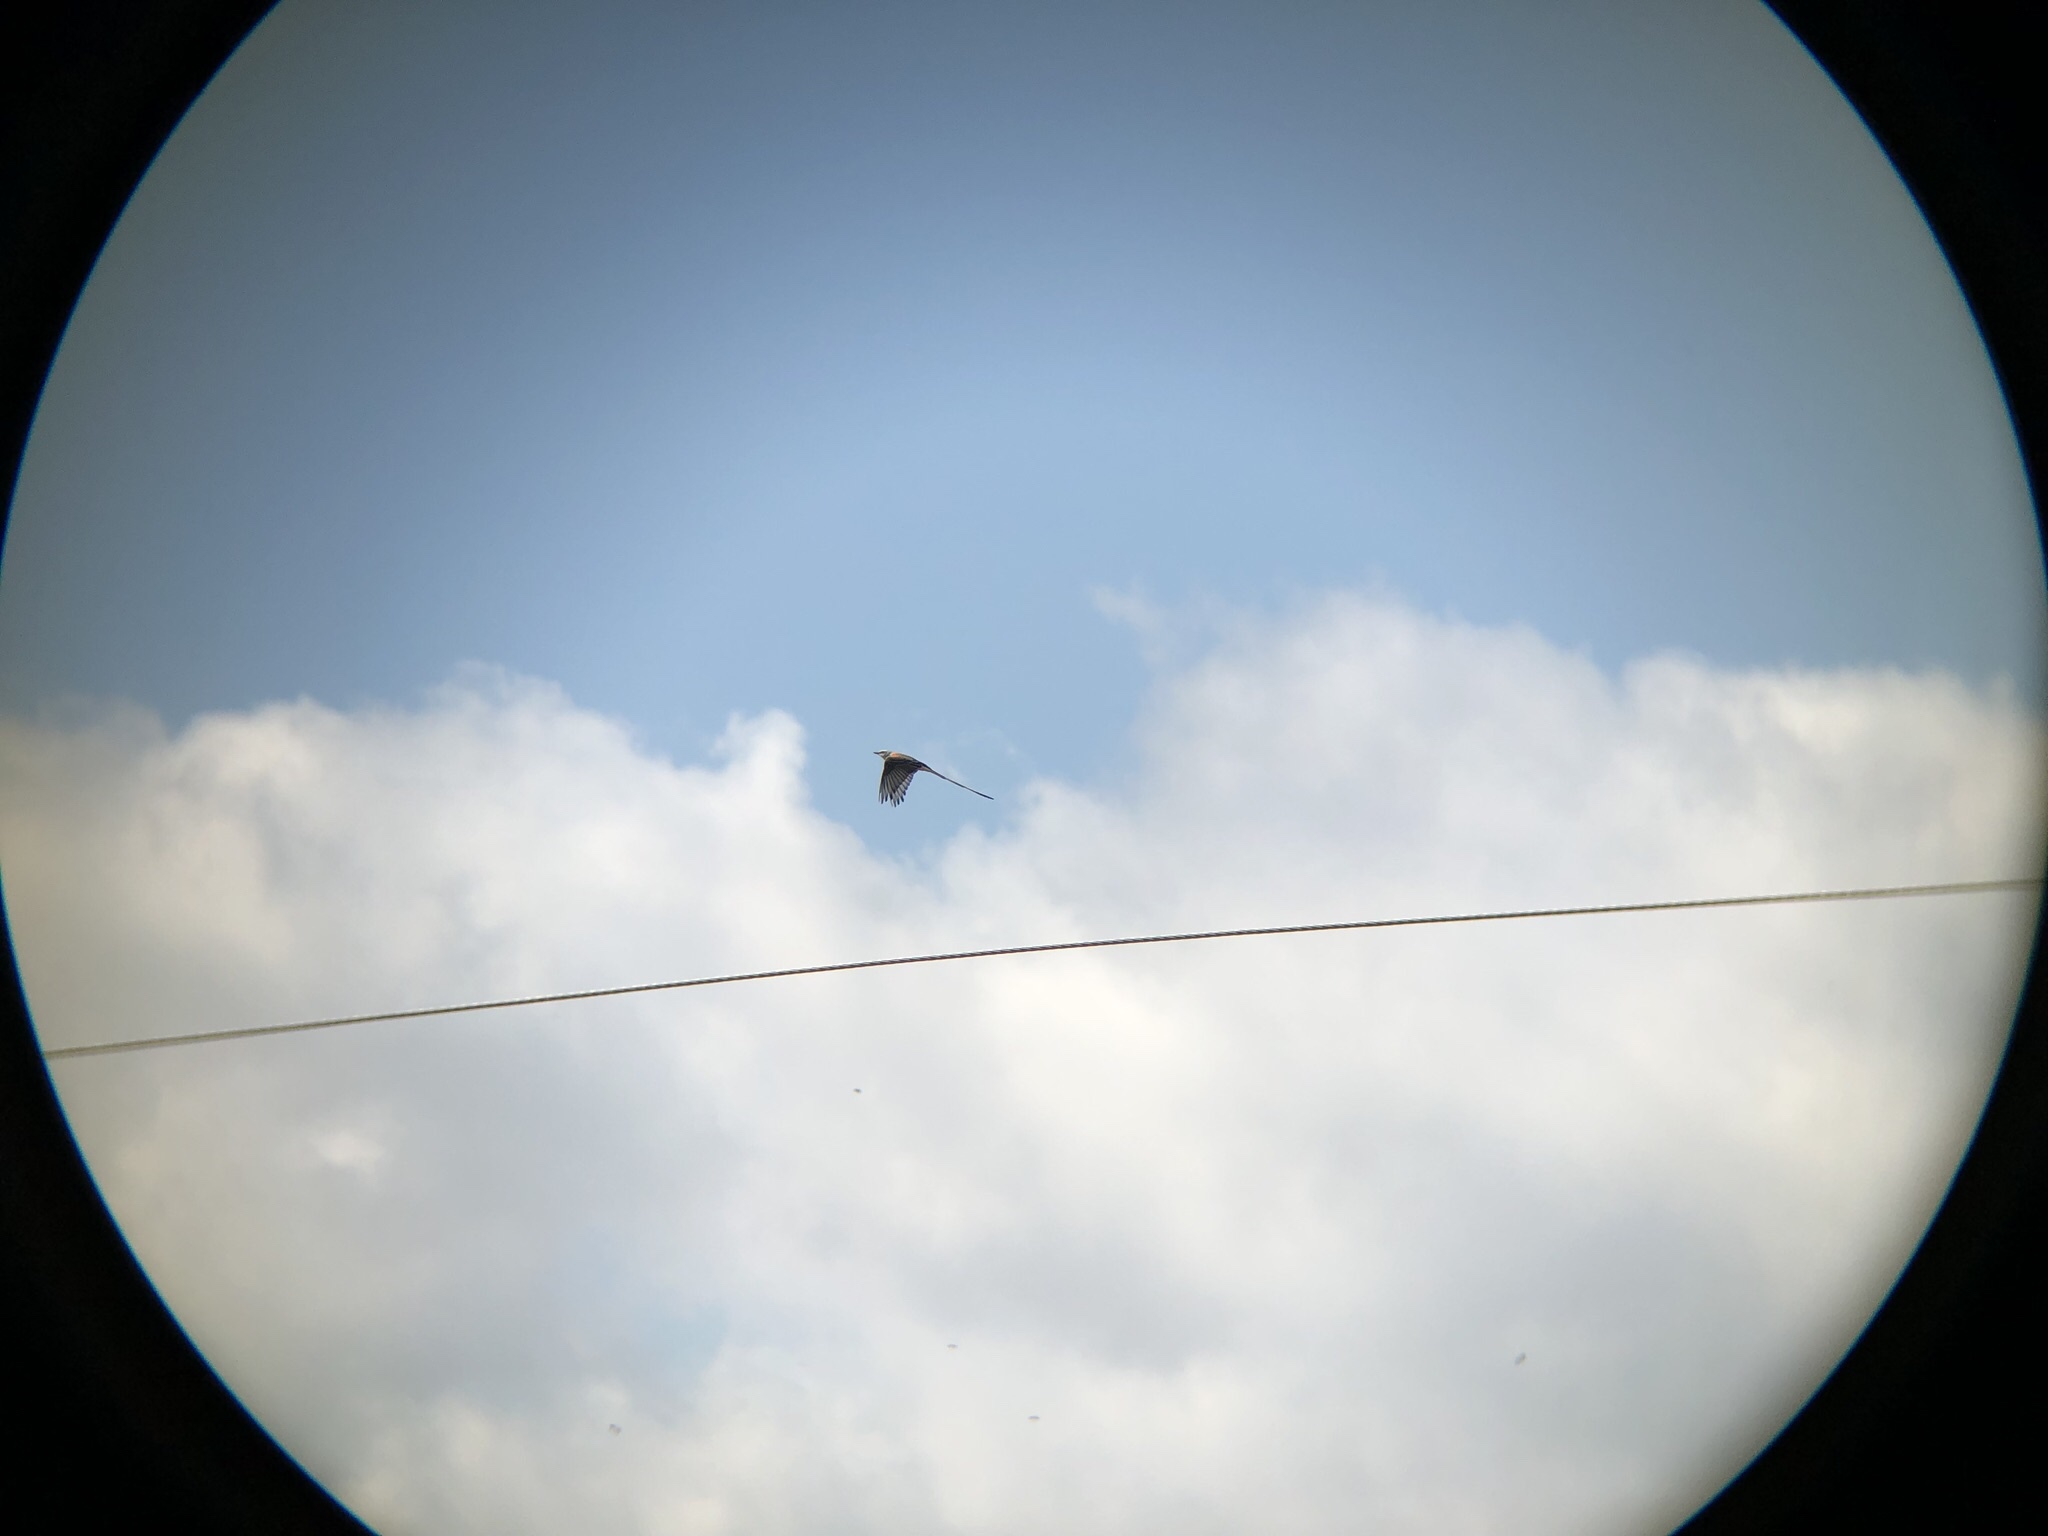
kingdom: Animalia
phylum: Chordata
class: Aves
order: Passeriformes
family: Tyrannidae
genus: Tyrannus
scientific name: Tyrannus forficatus
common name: Scissor-tailed flycatcher
